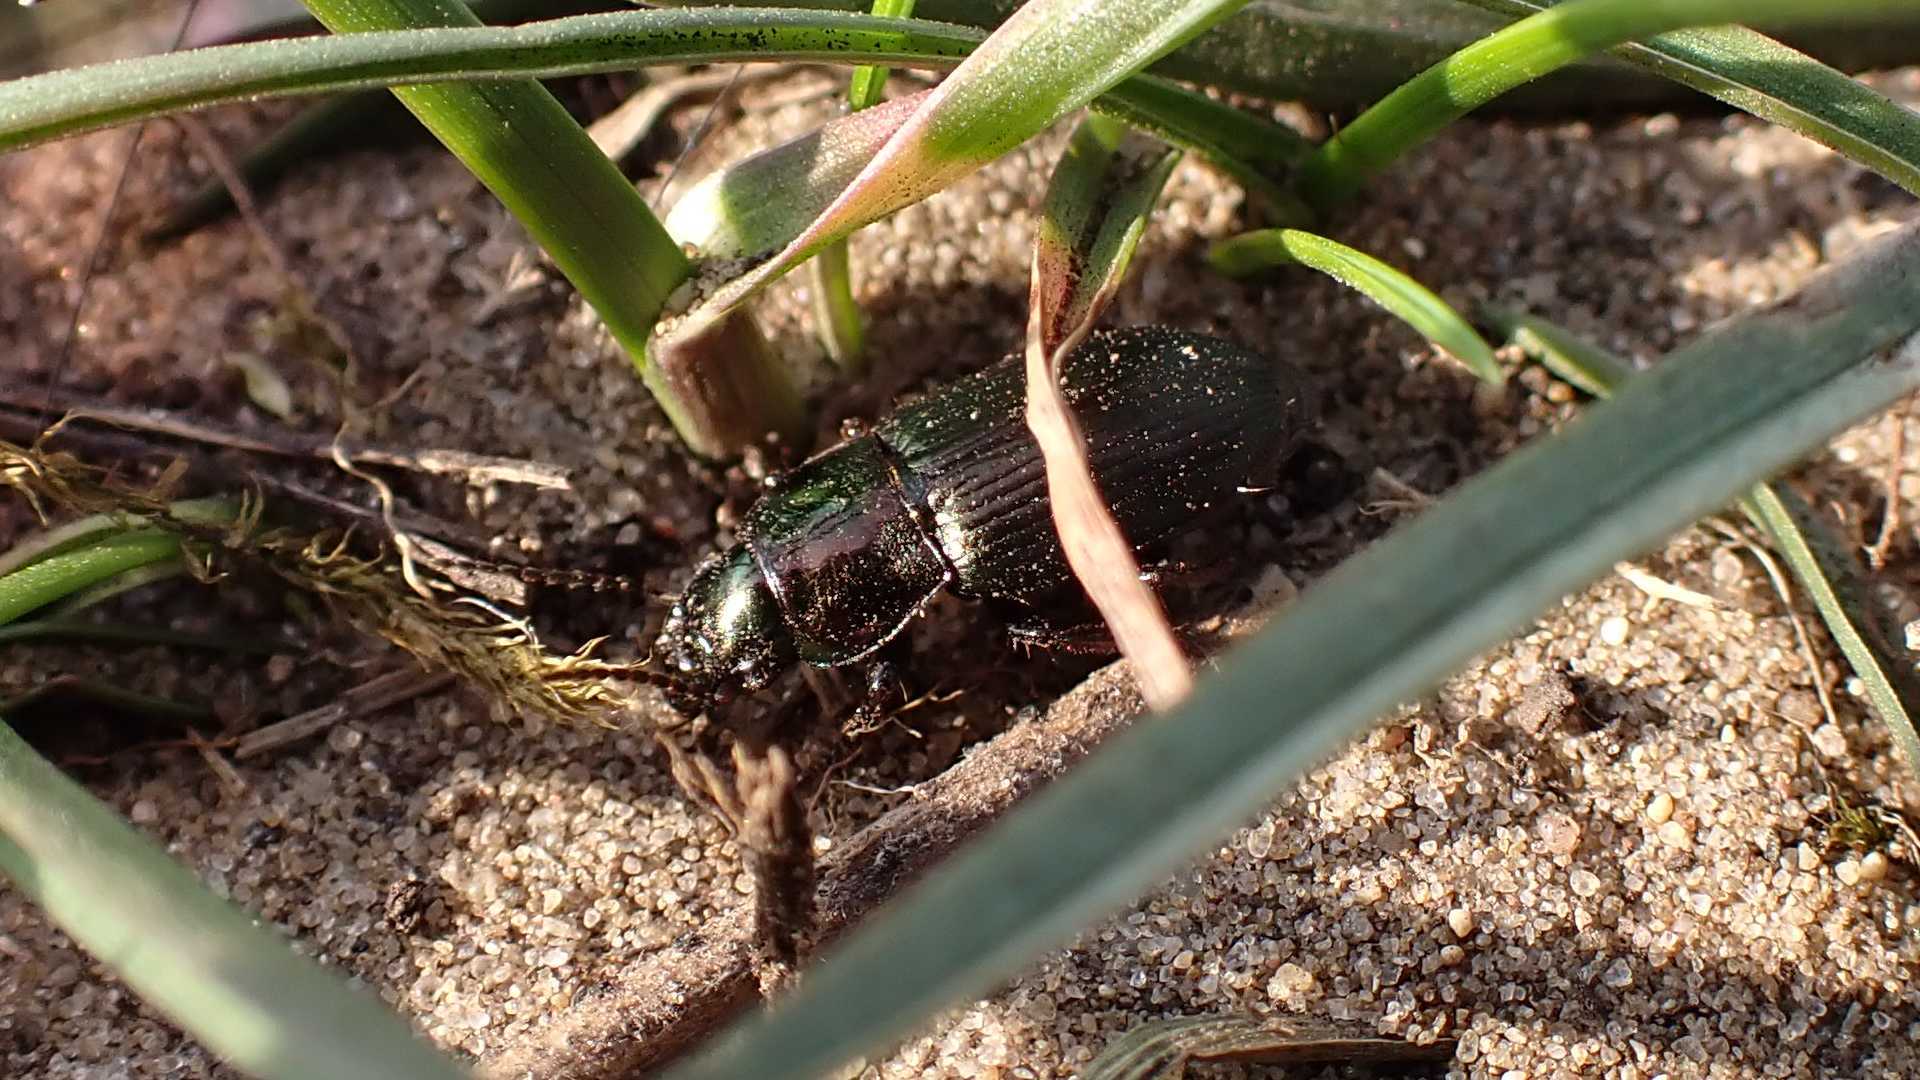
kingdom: Animalia
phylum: Arthropoda
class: Insecta
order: Coleoptera
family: Carabidae
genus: Harpalus
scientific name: Harpalus distinguendus
